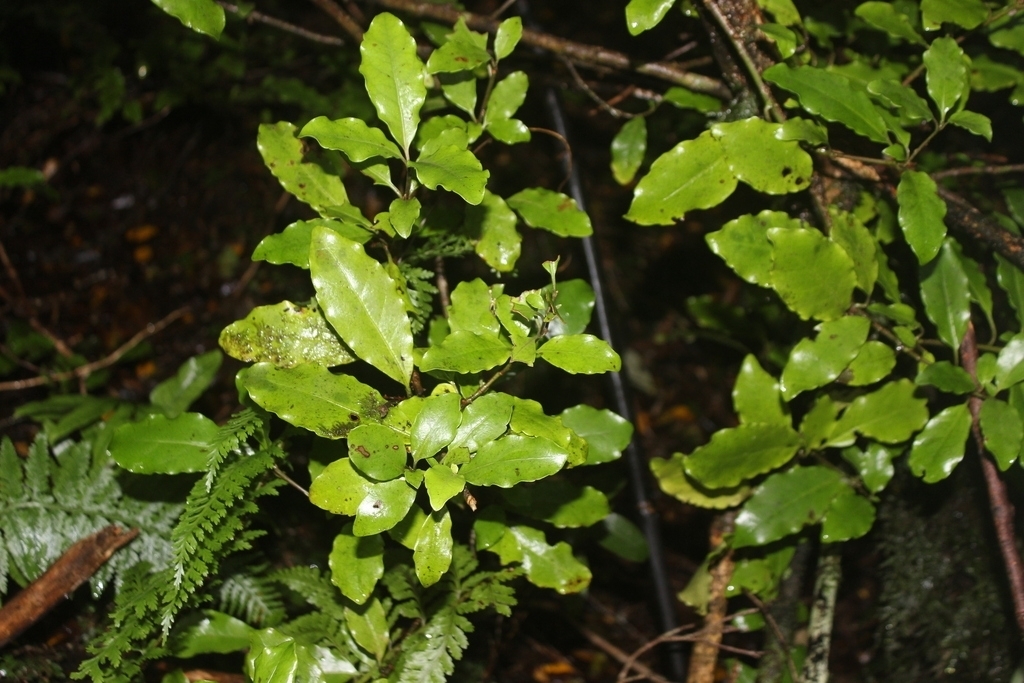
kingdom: Plantae
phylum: Tracheophyta
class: Magnoliopsida
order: Asterales
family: Alseuosmiaceae
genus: Alseuosmia
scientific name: Alseuosmia macrophylla
